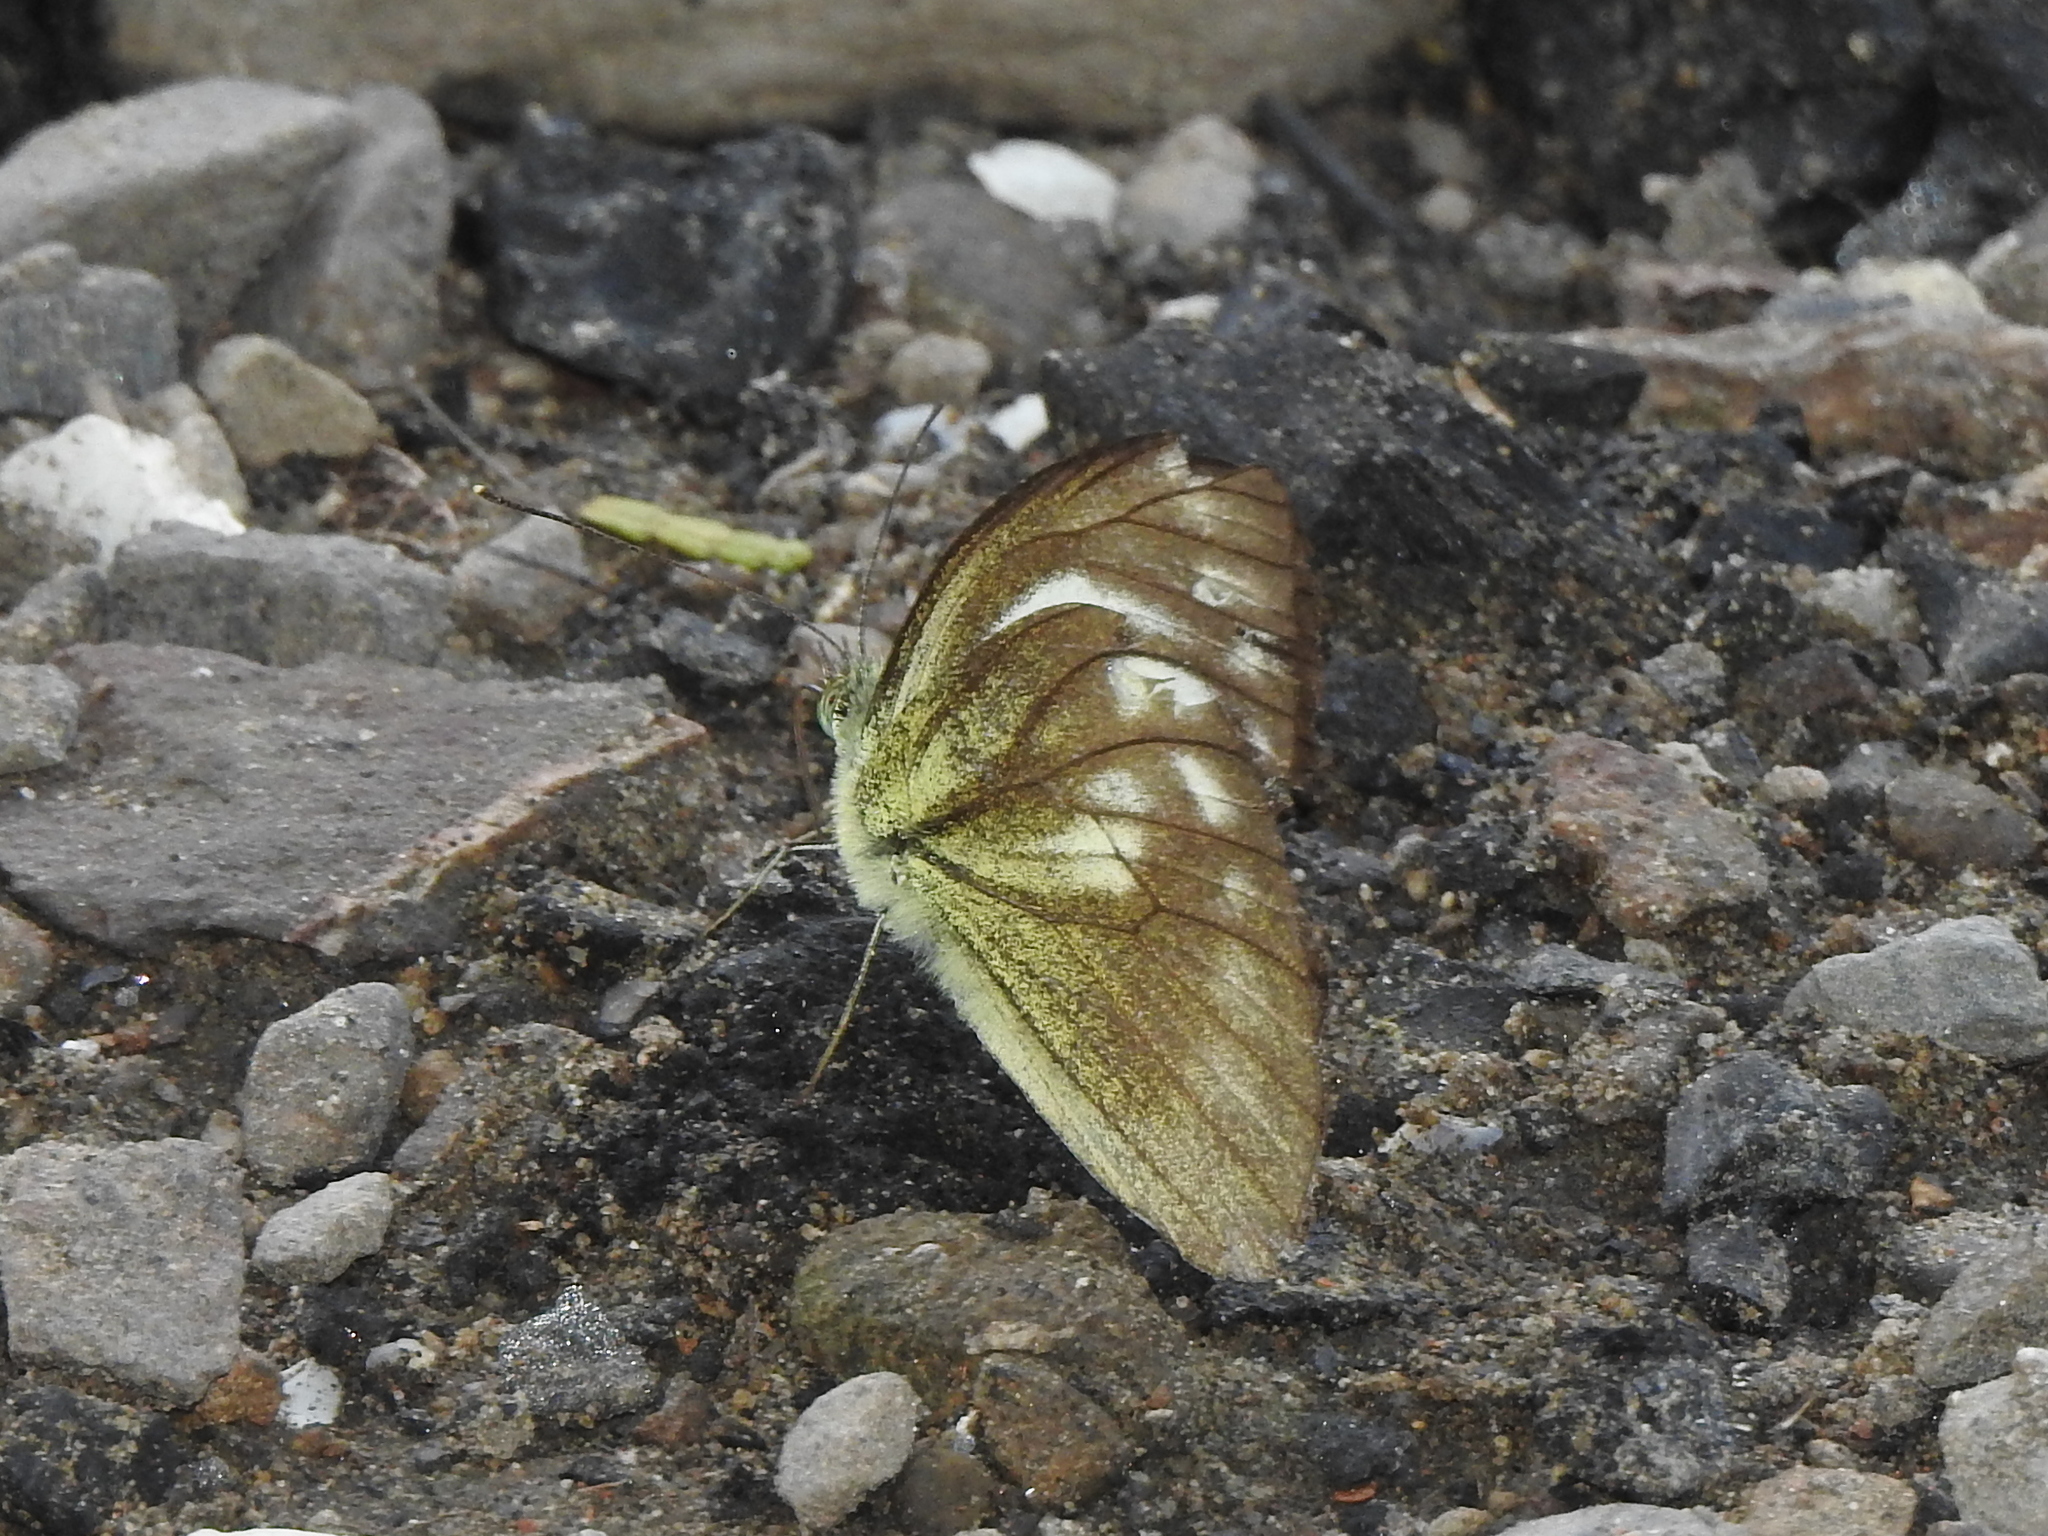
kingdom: Animalia
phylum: Arthropoda
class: Insecta
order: Lepidoptera
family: Pieridae
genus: Cepora
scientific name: Cepora nadina
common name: Lesser gull
